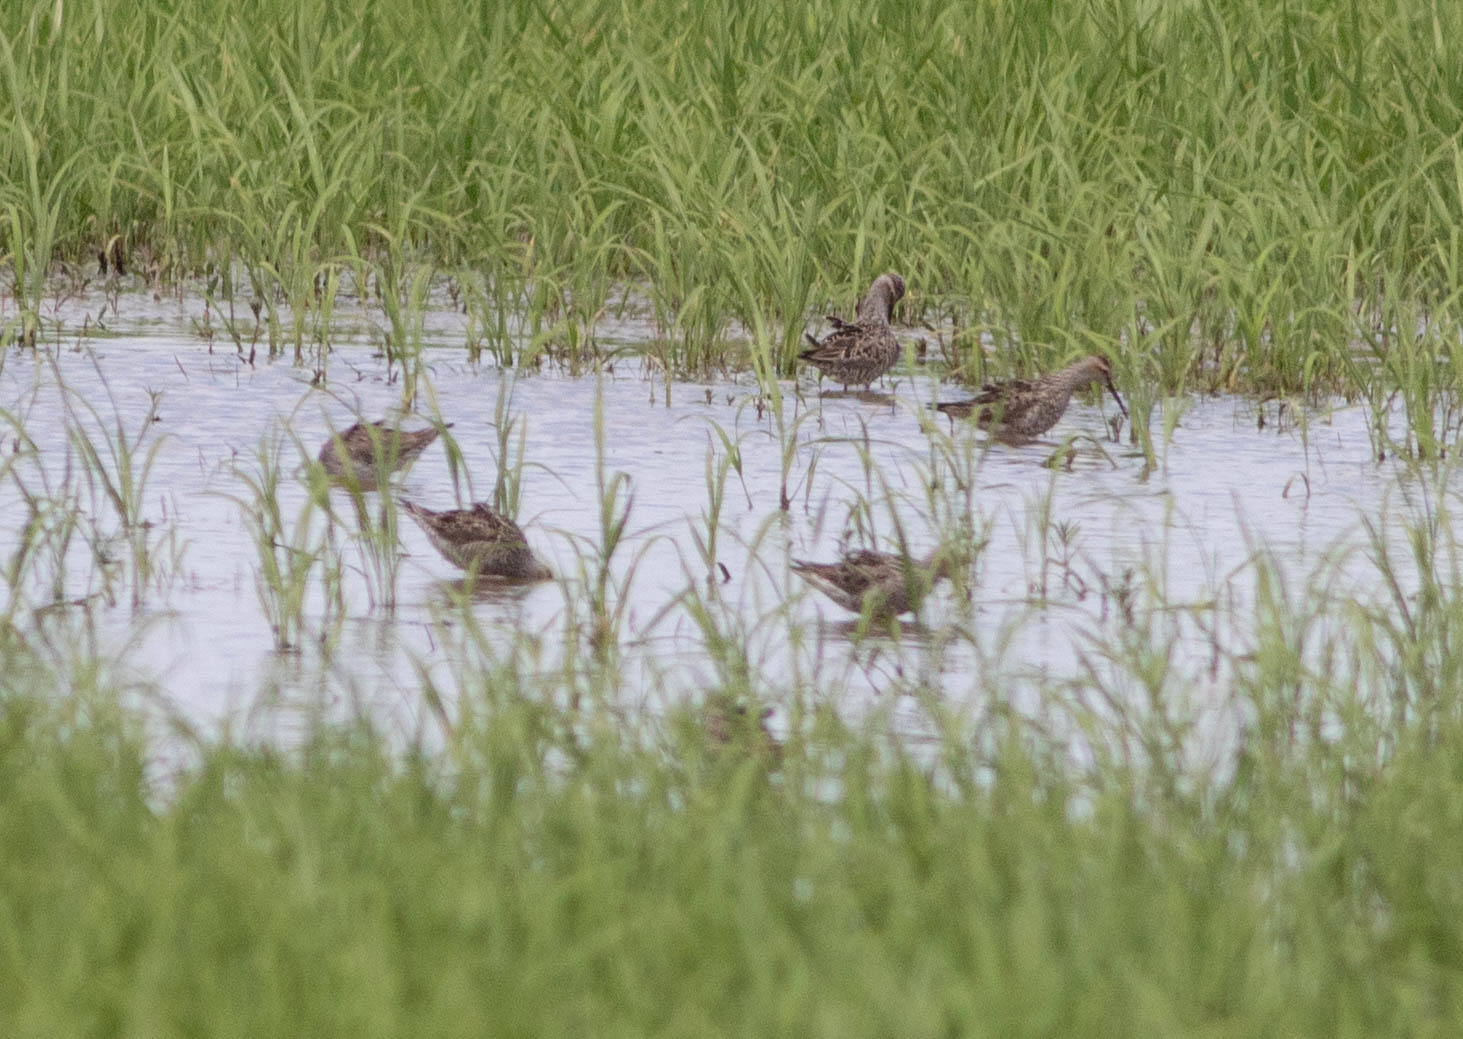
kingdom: Animalia
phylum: Chordata
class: Aves
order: Charadriiformes
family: Scolopacidae
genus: Calidris
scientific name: Calidris himantopus
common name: Stilt sandpiper
